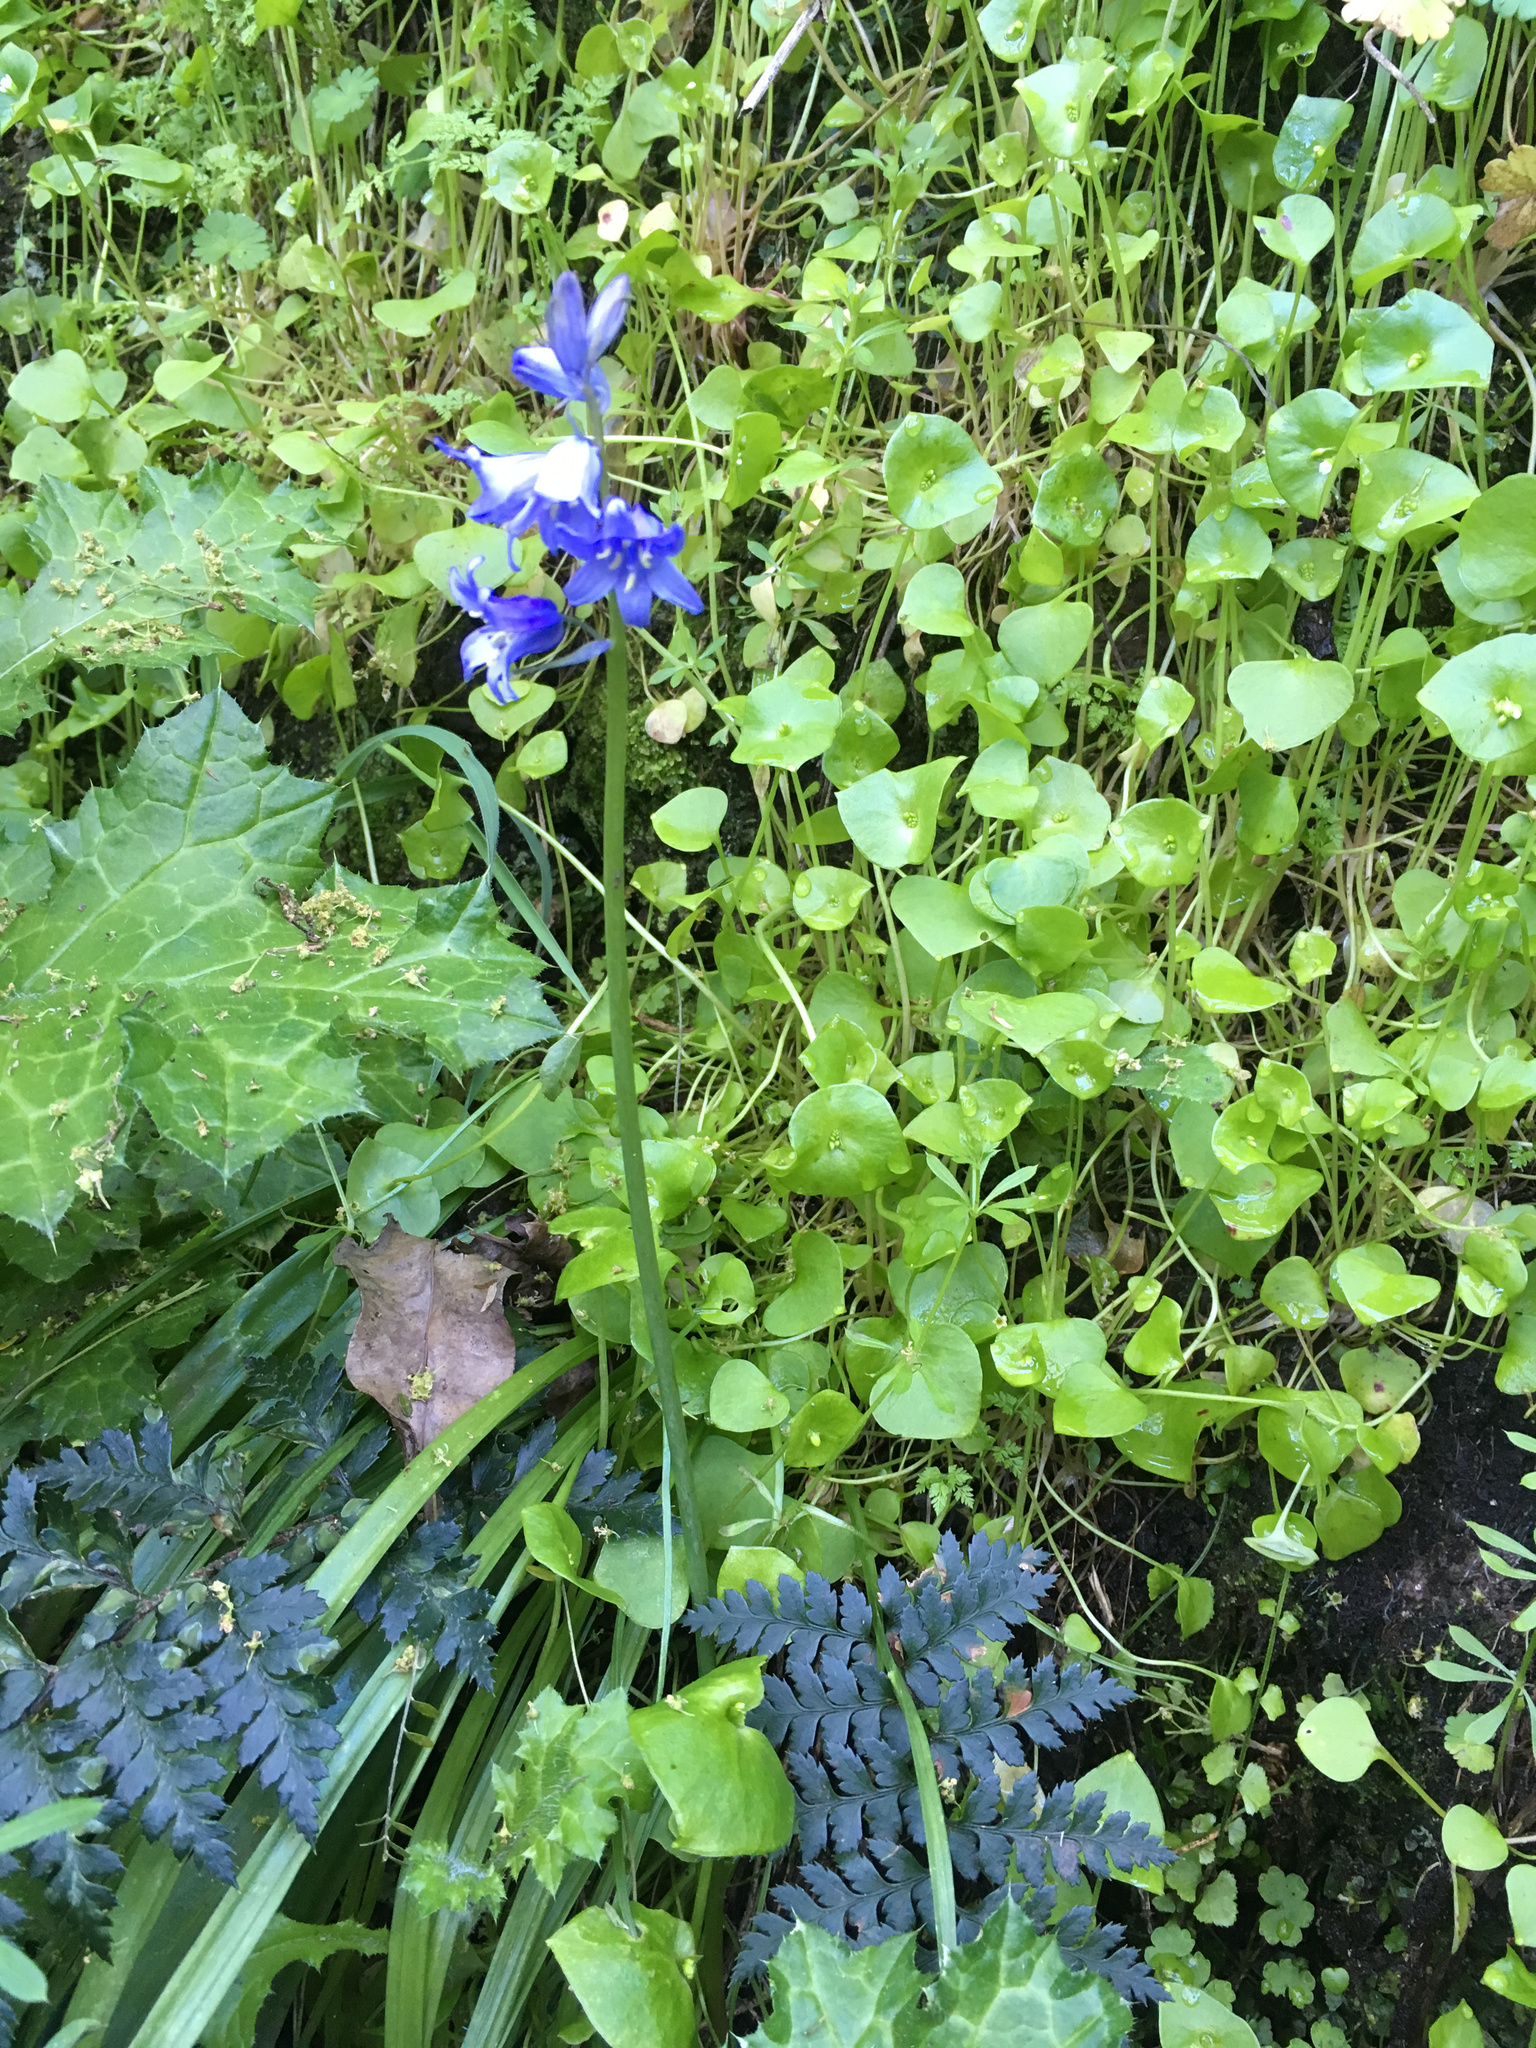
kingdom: Plantae
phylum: Tracheophyta
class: Liliopsida
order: Asparagales
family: Asparagaceae
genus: Hyacinthoides
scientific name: Hyacinthoides hispanica
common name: Spanish bluebell
